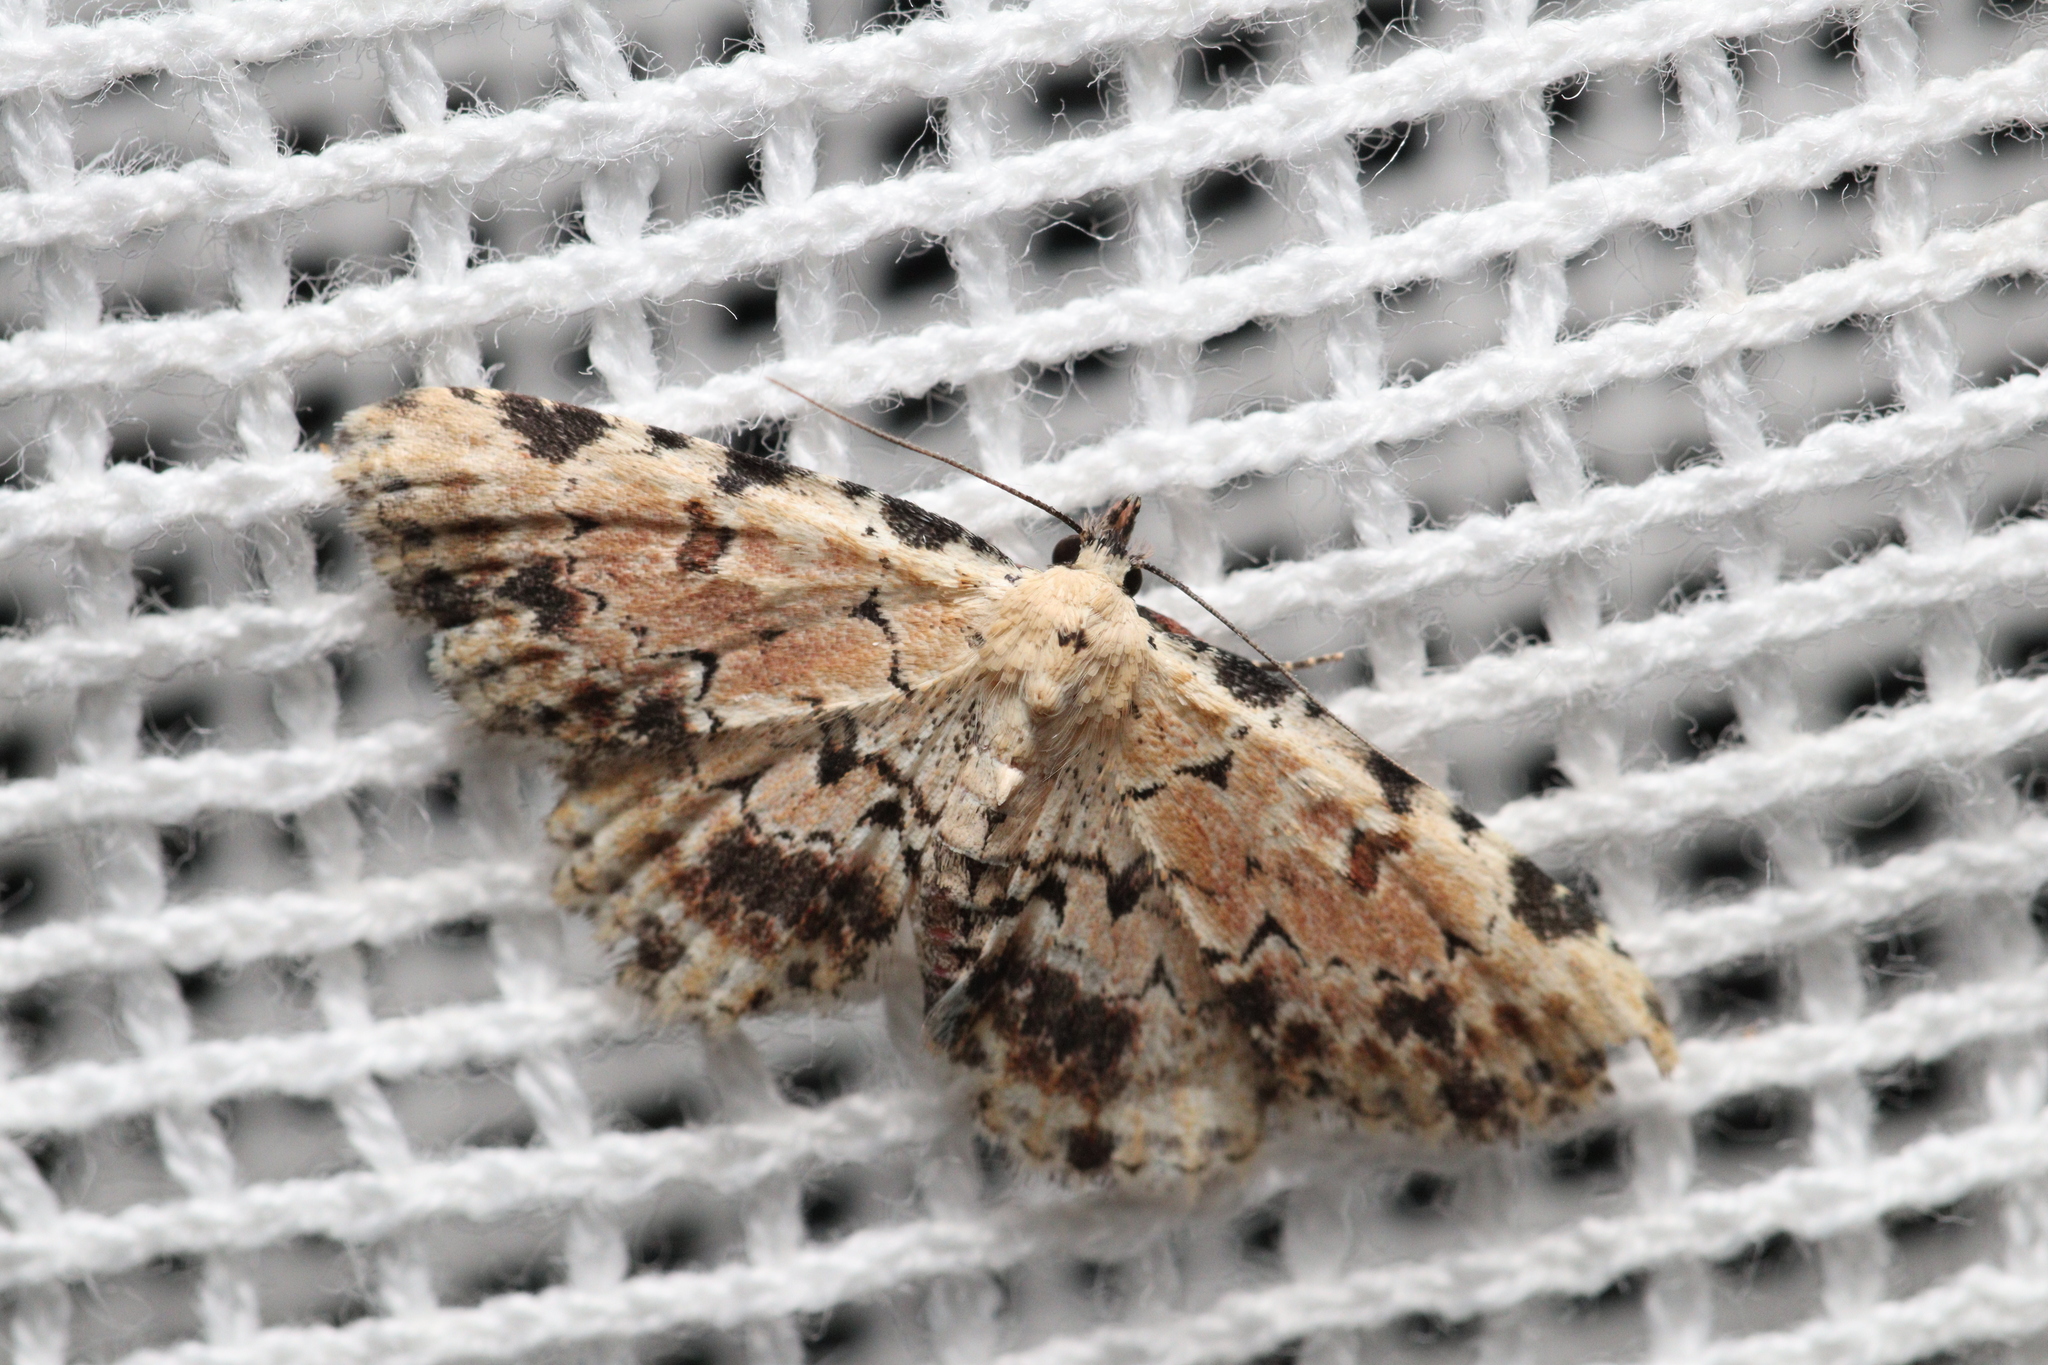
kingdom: Animalia
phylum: Arthropoda
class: Insecta
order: Lepidoptera
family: Erebidae
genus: Sandava
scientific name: Sandava scitisignata
